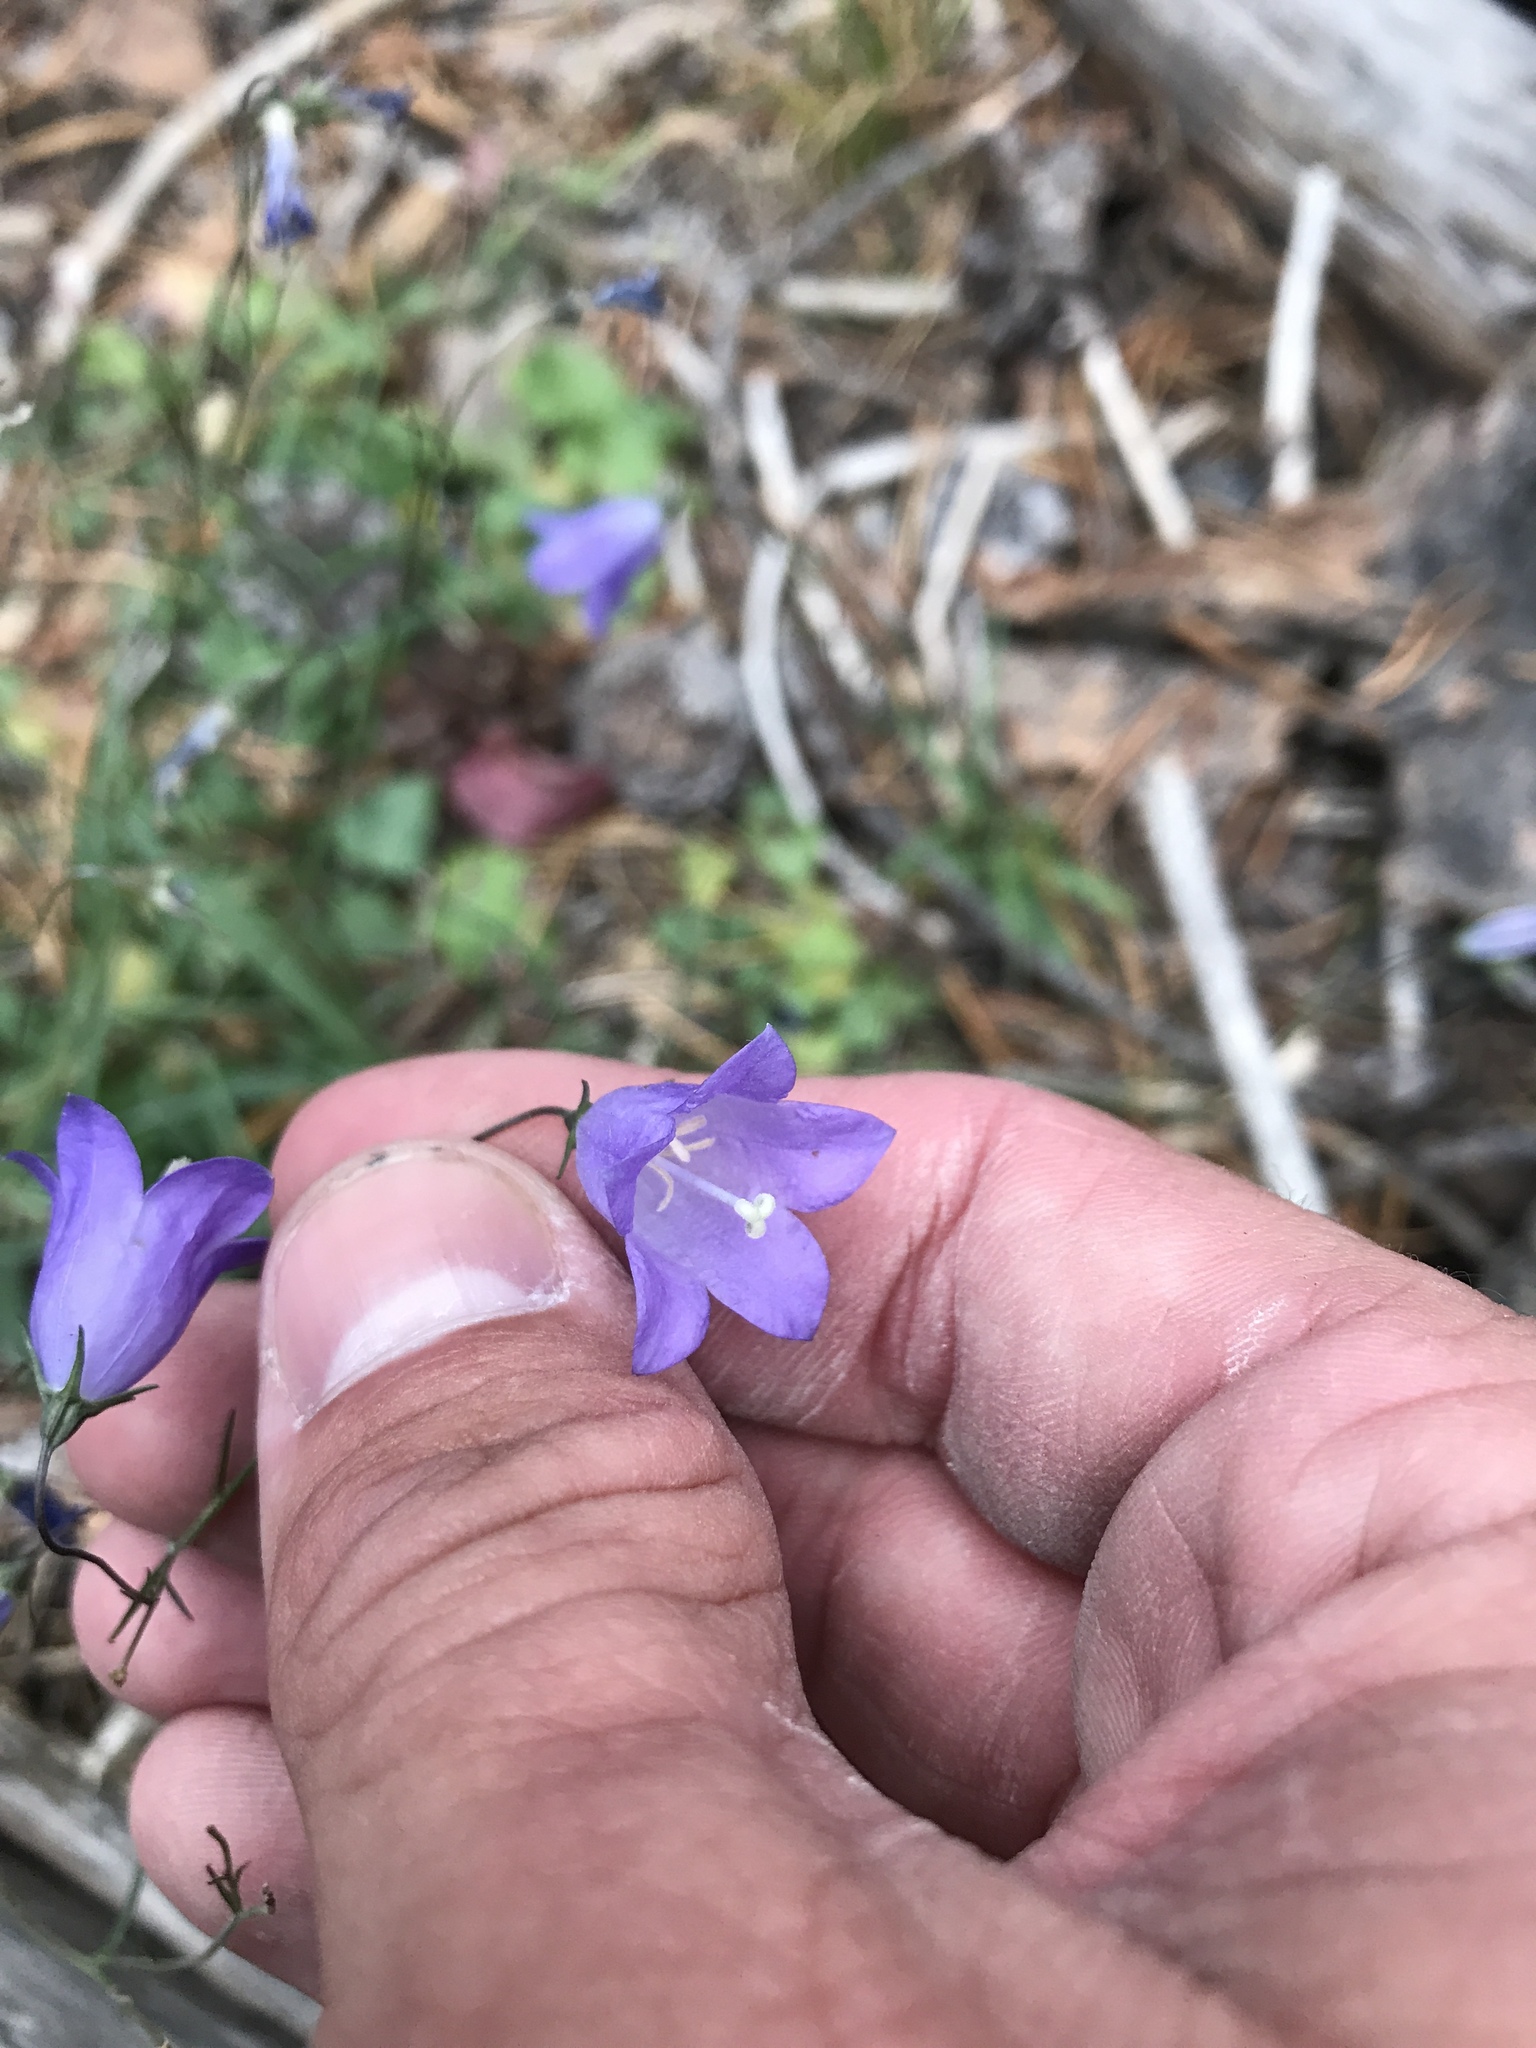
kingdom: Plantae
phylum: Tracheophyta
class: Magnoliopsida
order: Asterales
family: Campanulaceae
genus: Campanula
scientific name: Campanula
